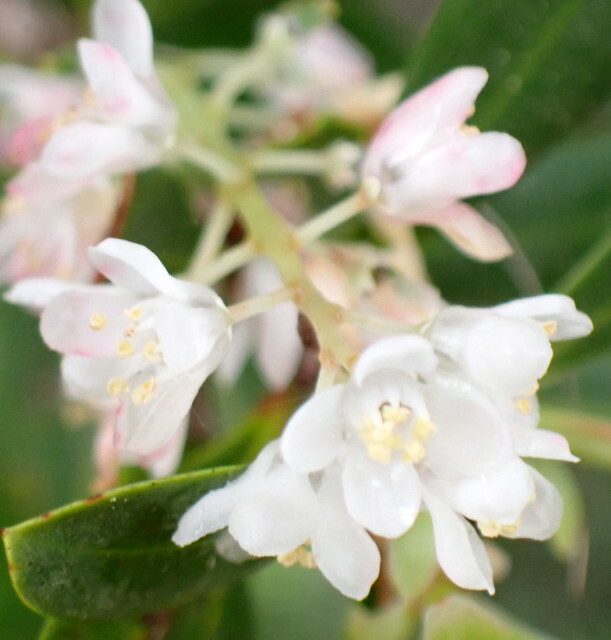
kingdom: Plantae
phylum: Tracheophyta
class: Magnoliopsida
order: Ericales
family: Cyrillaceae
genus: Cliftonia
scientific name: Cliftonia monophylla
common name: Titi
